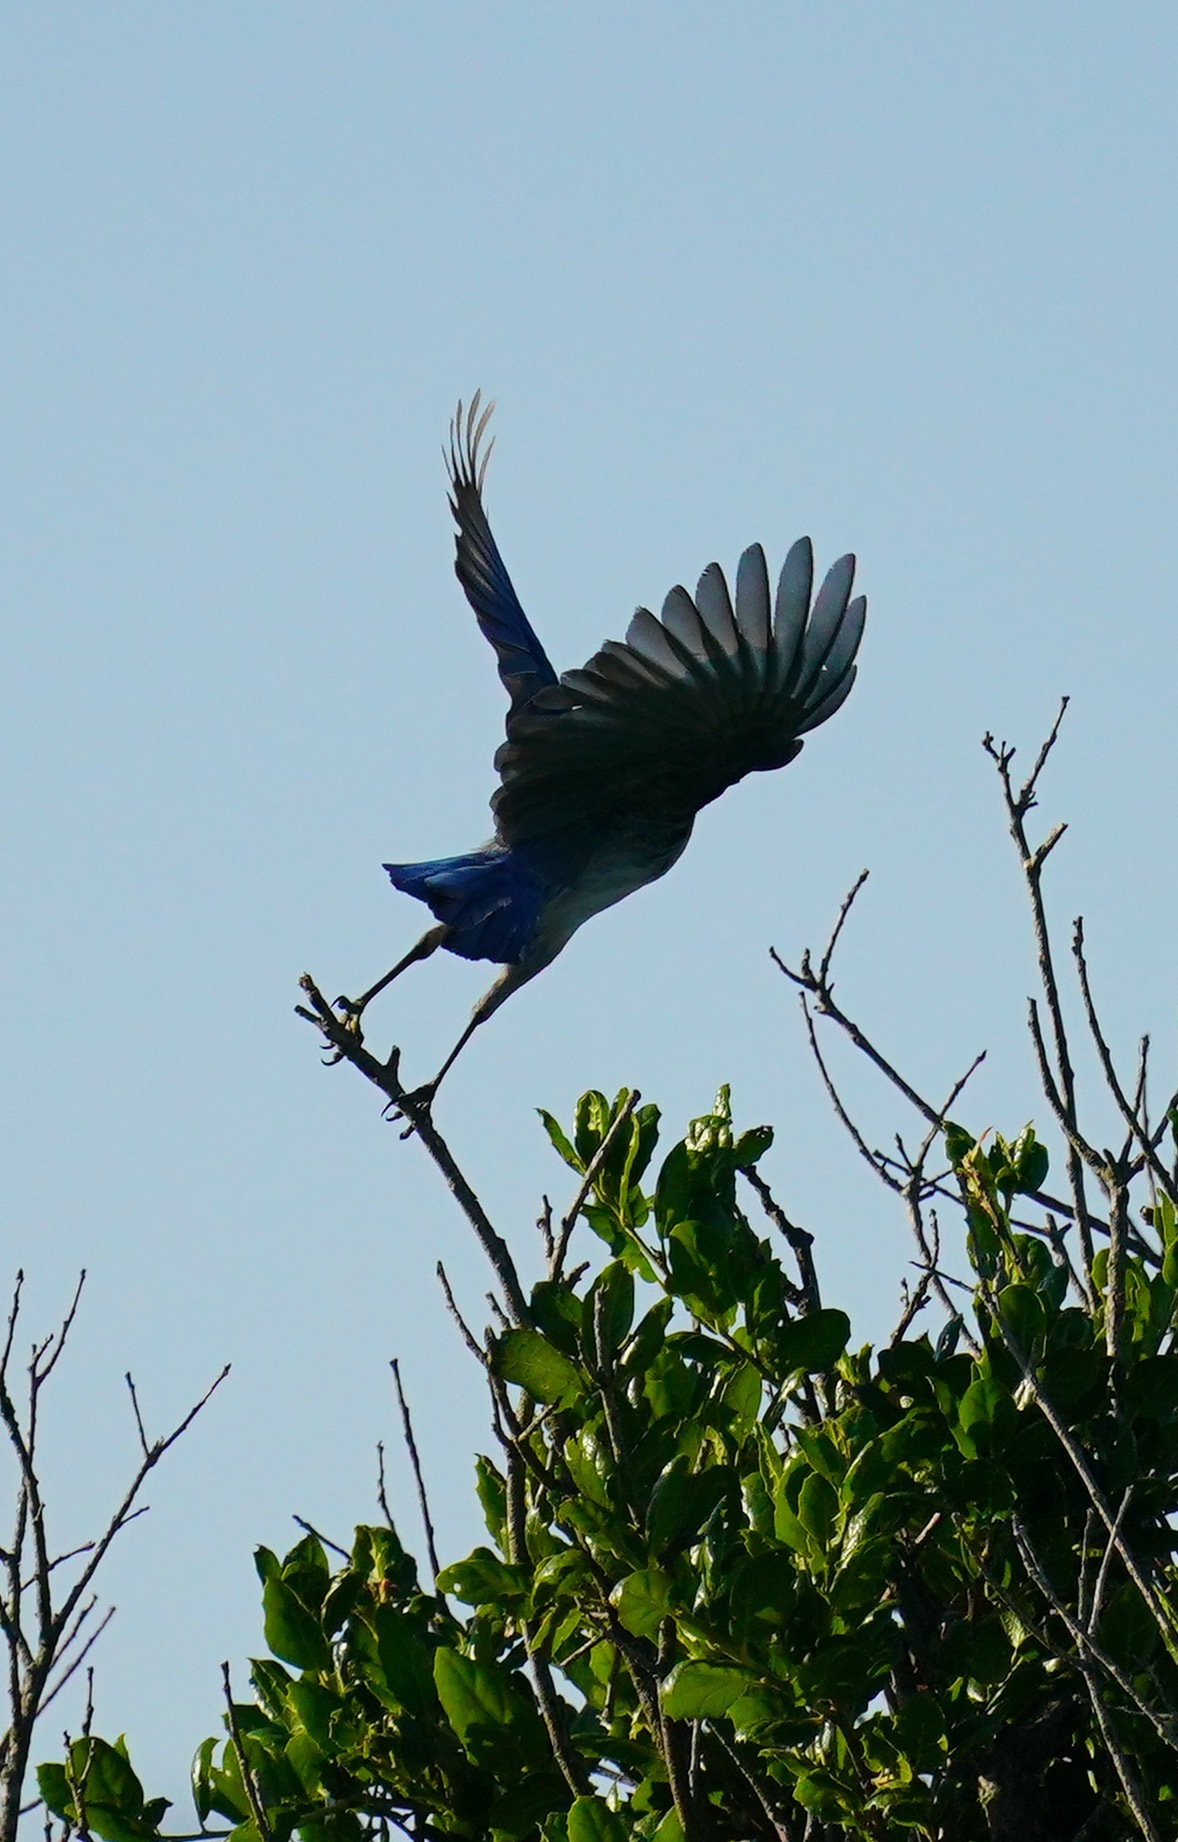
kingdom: Animalia
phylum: Chordata
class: Aves
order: Passeriformes
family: Corvidae
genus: Aphelocoma
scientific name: Aphelocoma californica
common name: California scrub-jay
